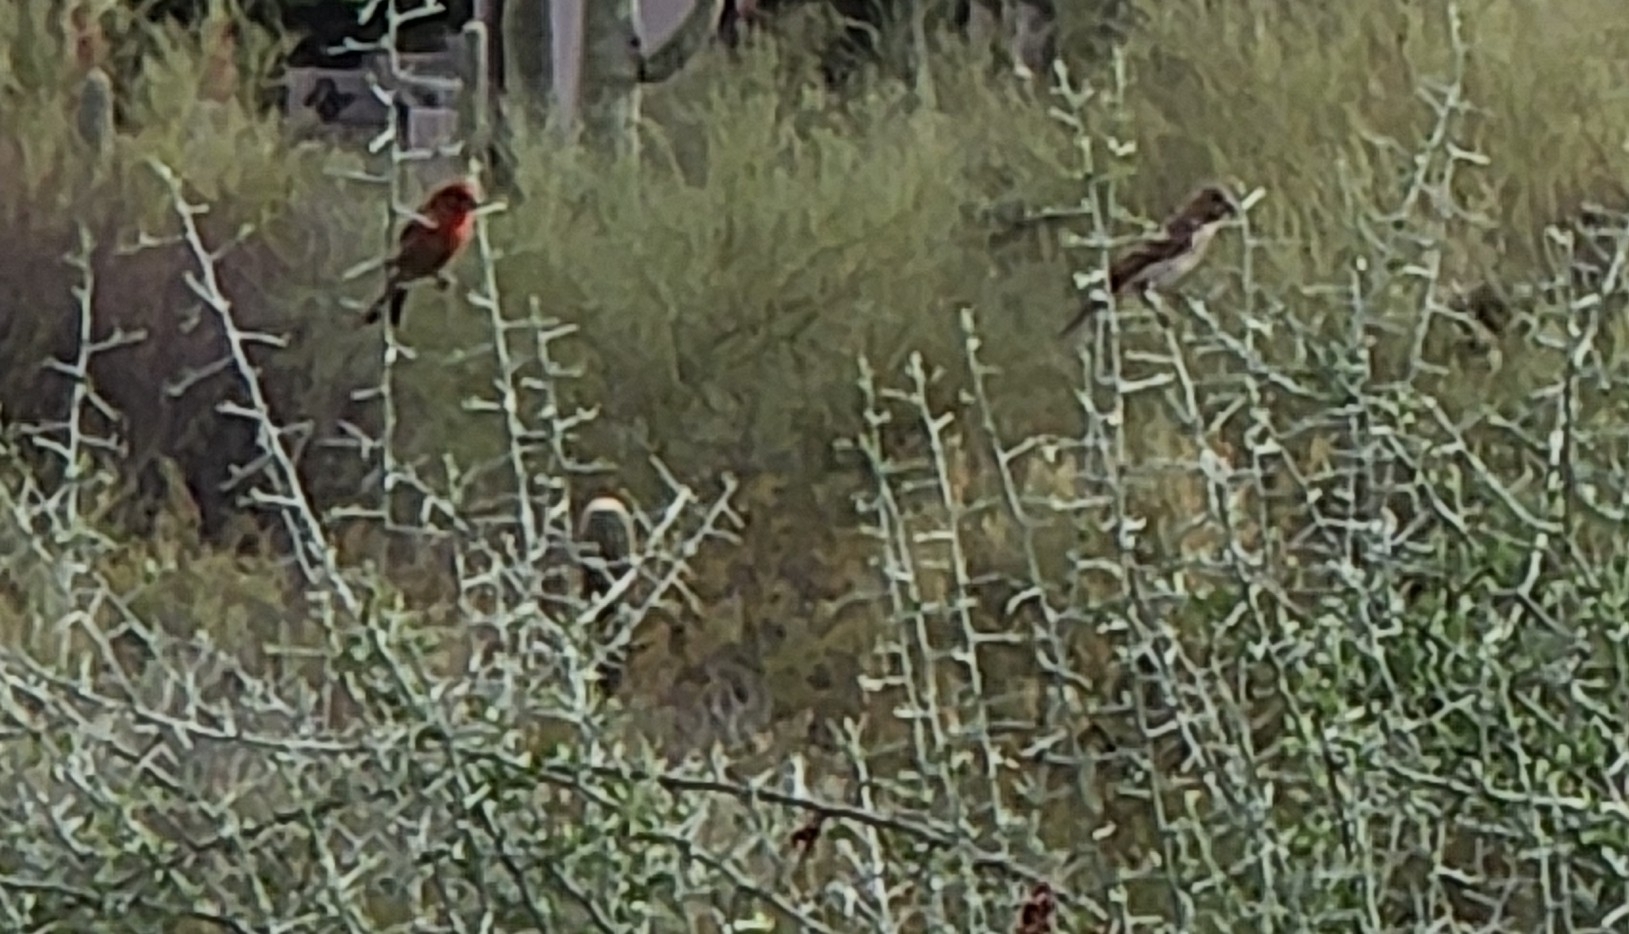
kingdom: Animalia
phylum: Chordata
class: Aves
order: Passeriformes
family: Fringillidae
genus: Haemorhous
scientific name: Haemorhous mexicanus
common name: House finch
